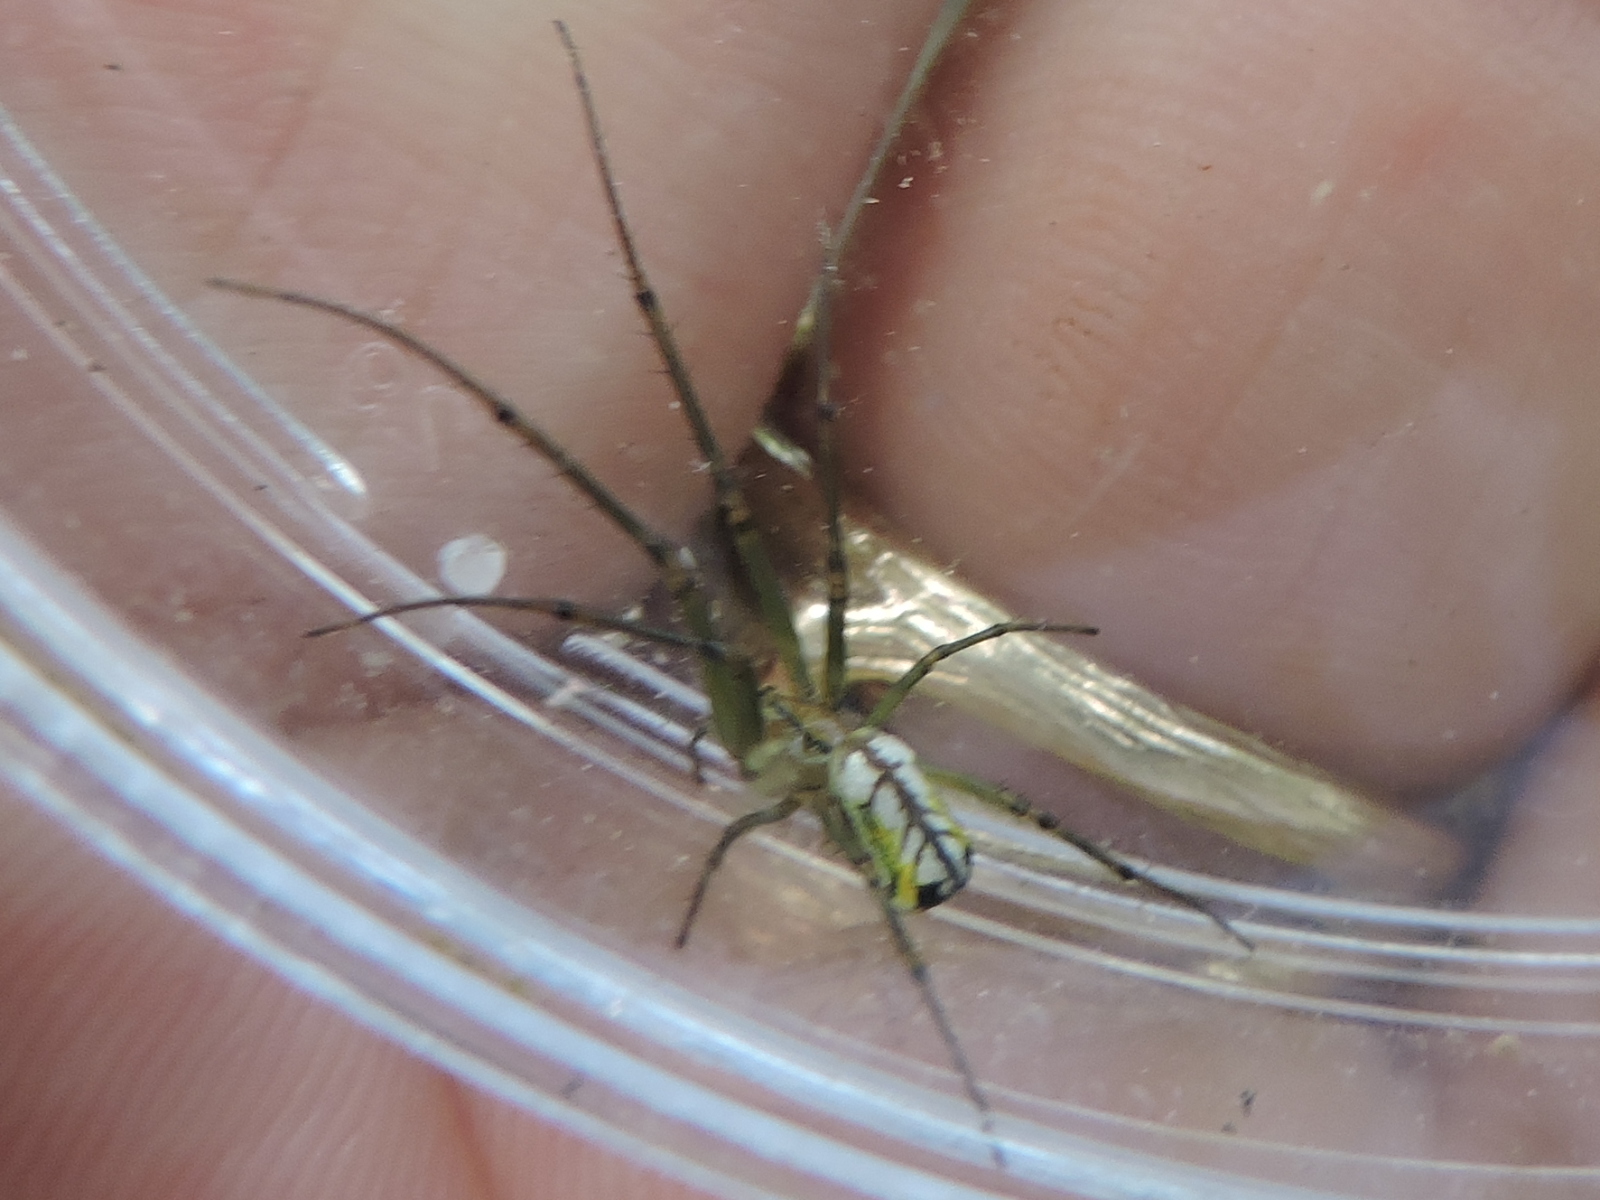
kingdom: Animalia
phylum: Arthropoda
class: Arachnida
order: Araneae
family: Tetragnathidae
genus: Leucauge
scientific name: Leucauge venusta
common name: Longjawed orb weavers
